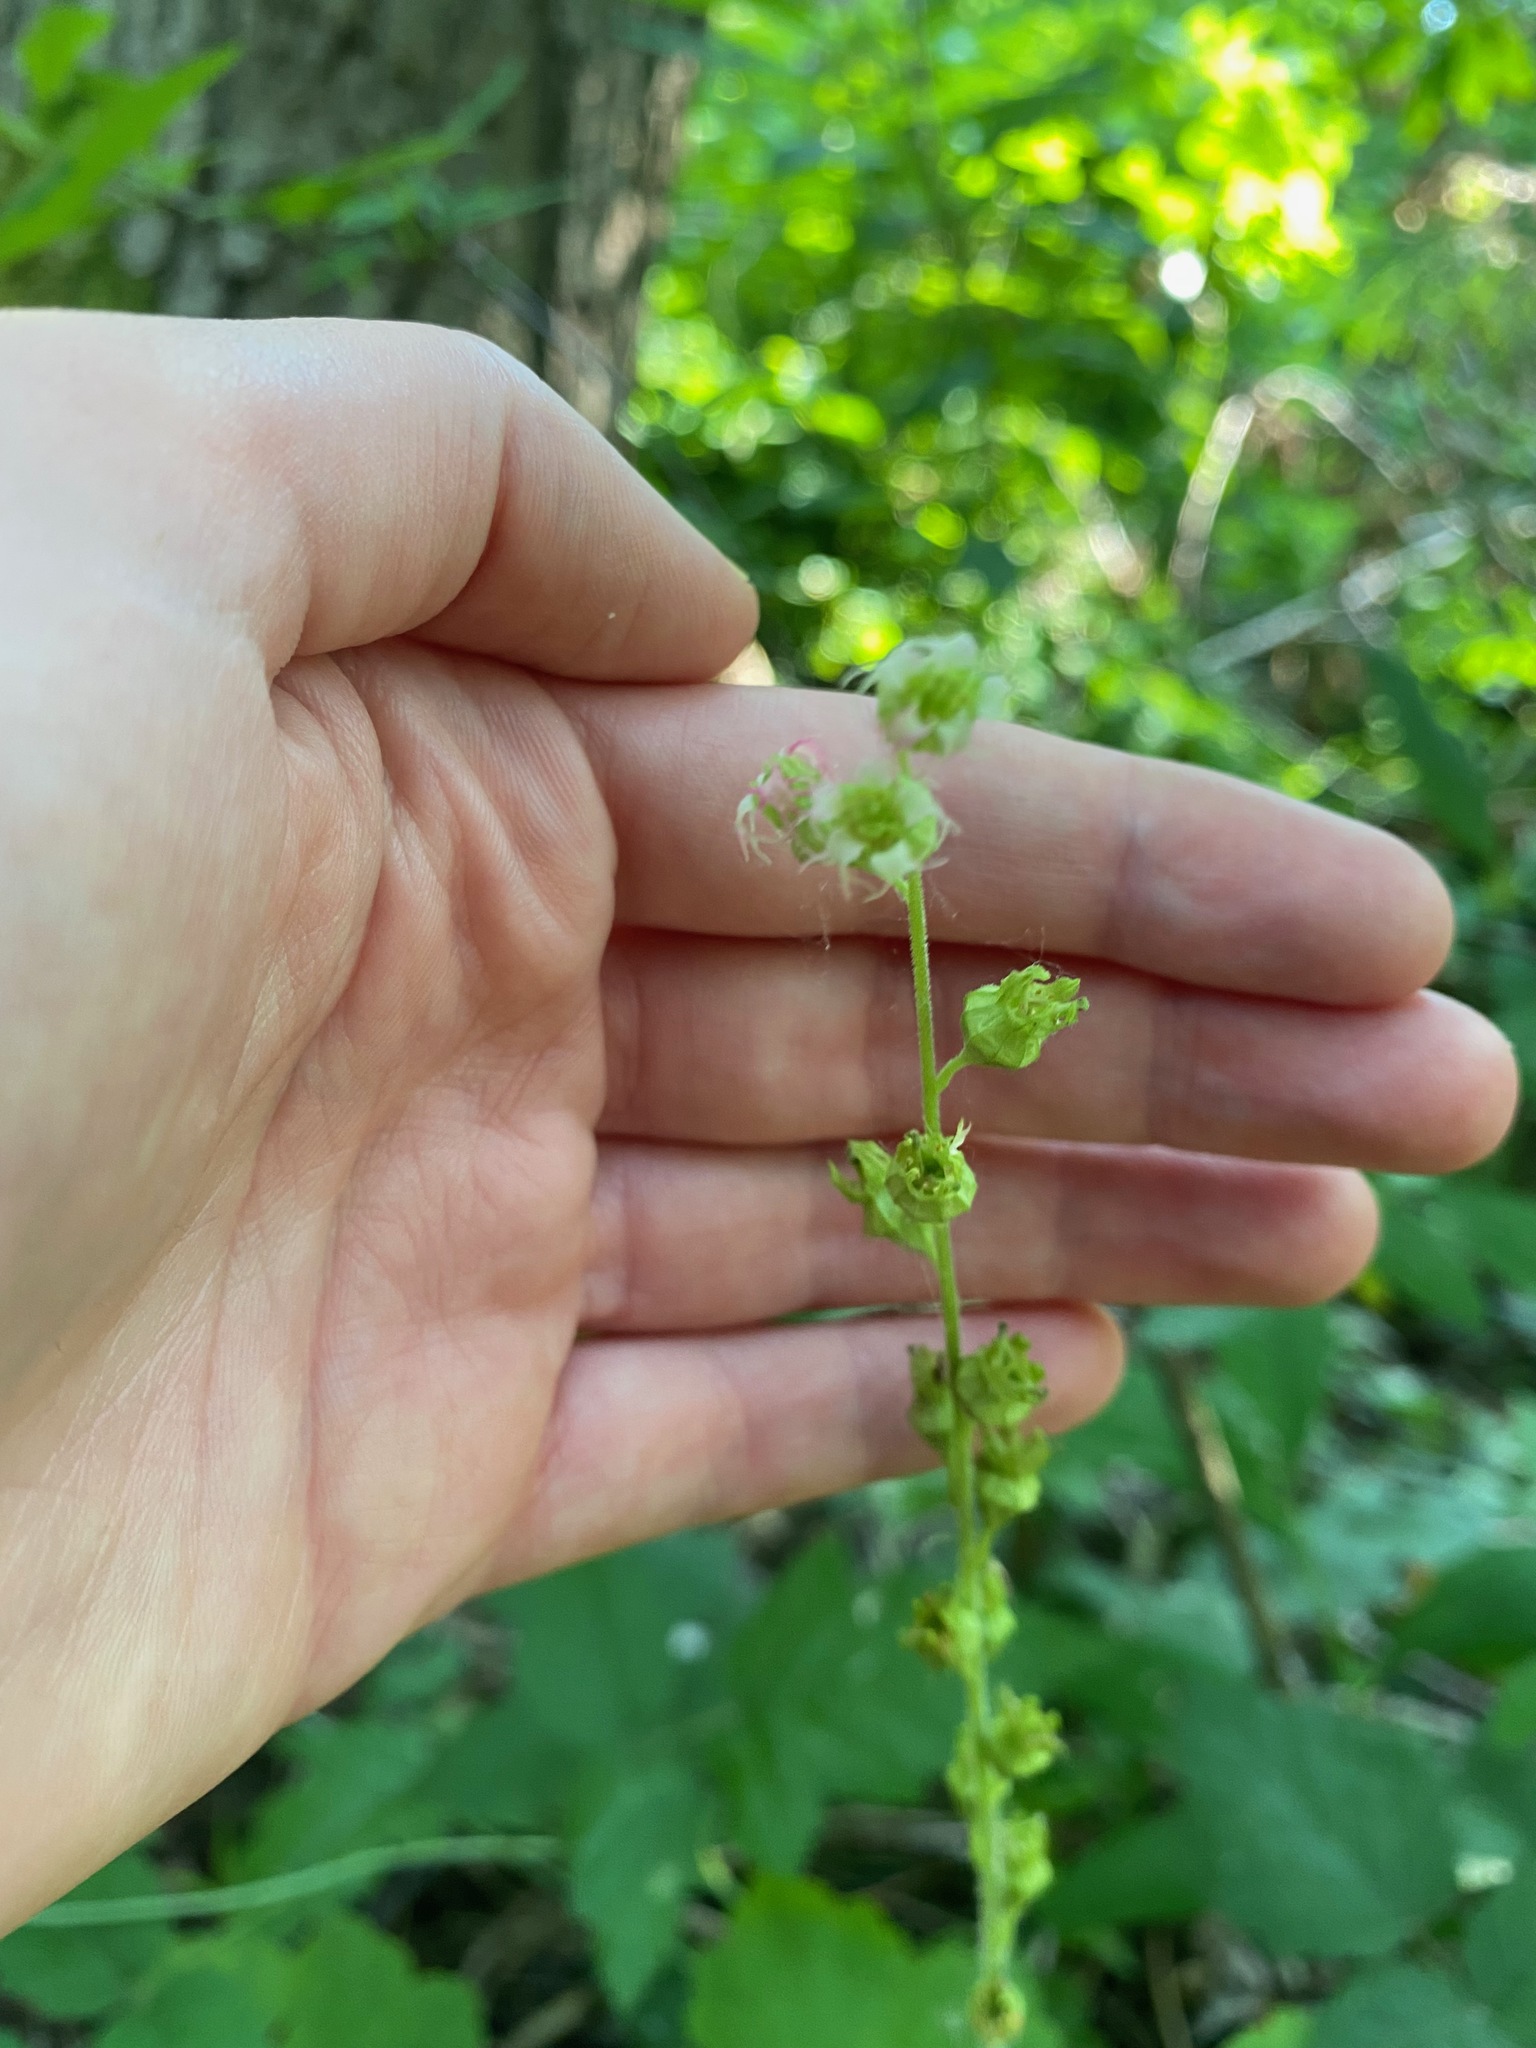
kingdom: Plantae
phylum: Tracheophyta
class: Magnoliopsida
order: Saxifragales
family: Saxifragaceae
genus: Tellima
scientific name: Tellima grandiflora
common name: Fringecups
